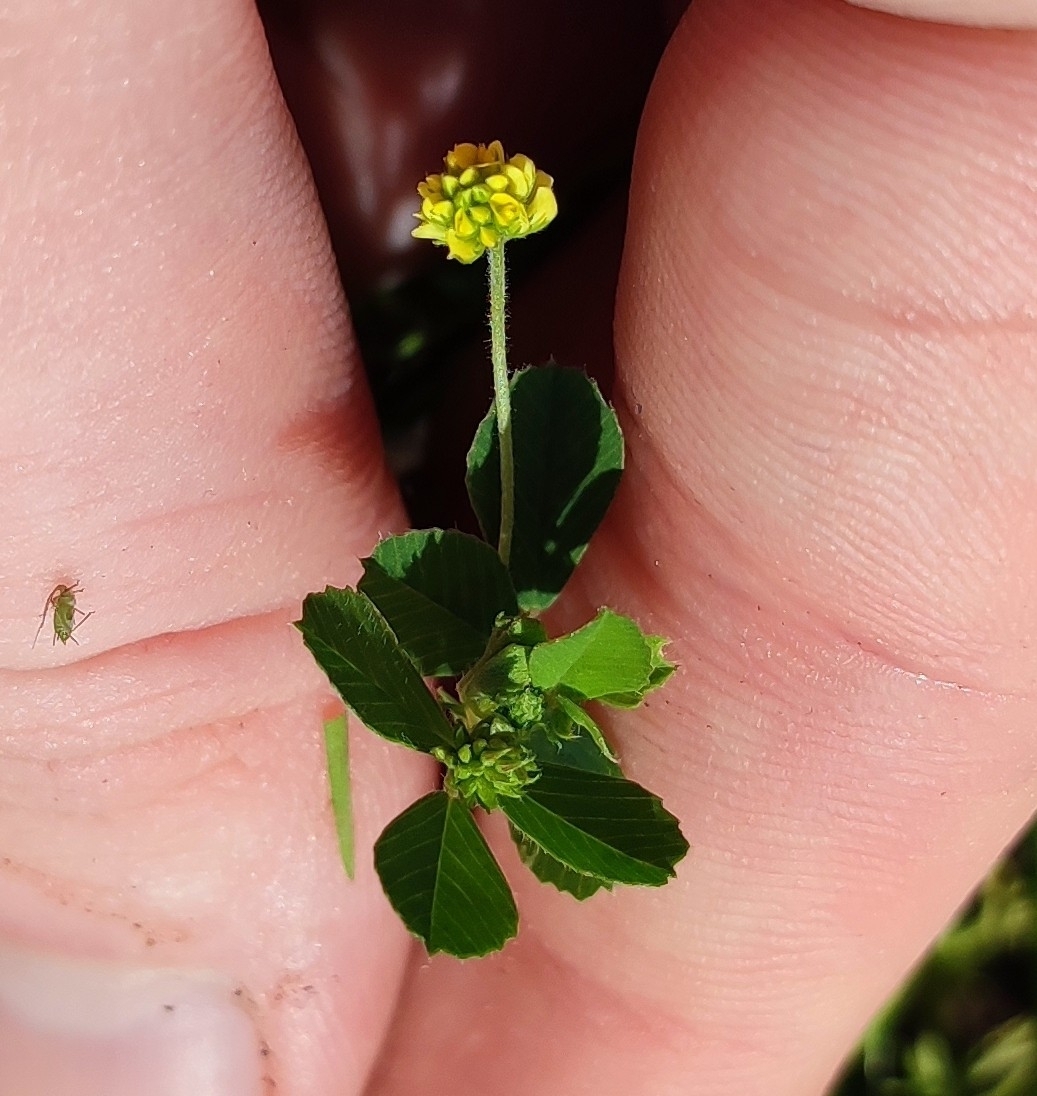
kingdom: Plantae
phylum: Tracheophyta
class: Magnoliopsida
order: Fabales
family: Fabaceae
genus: Medicago
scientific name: Medicago lupulina
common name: Black medick
